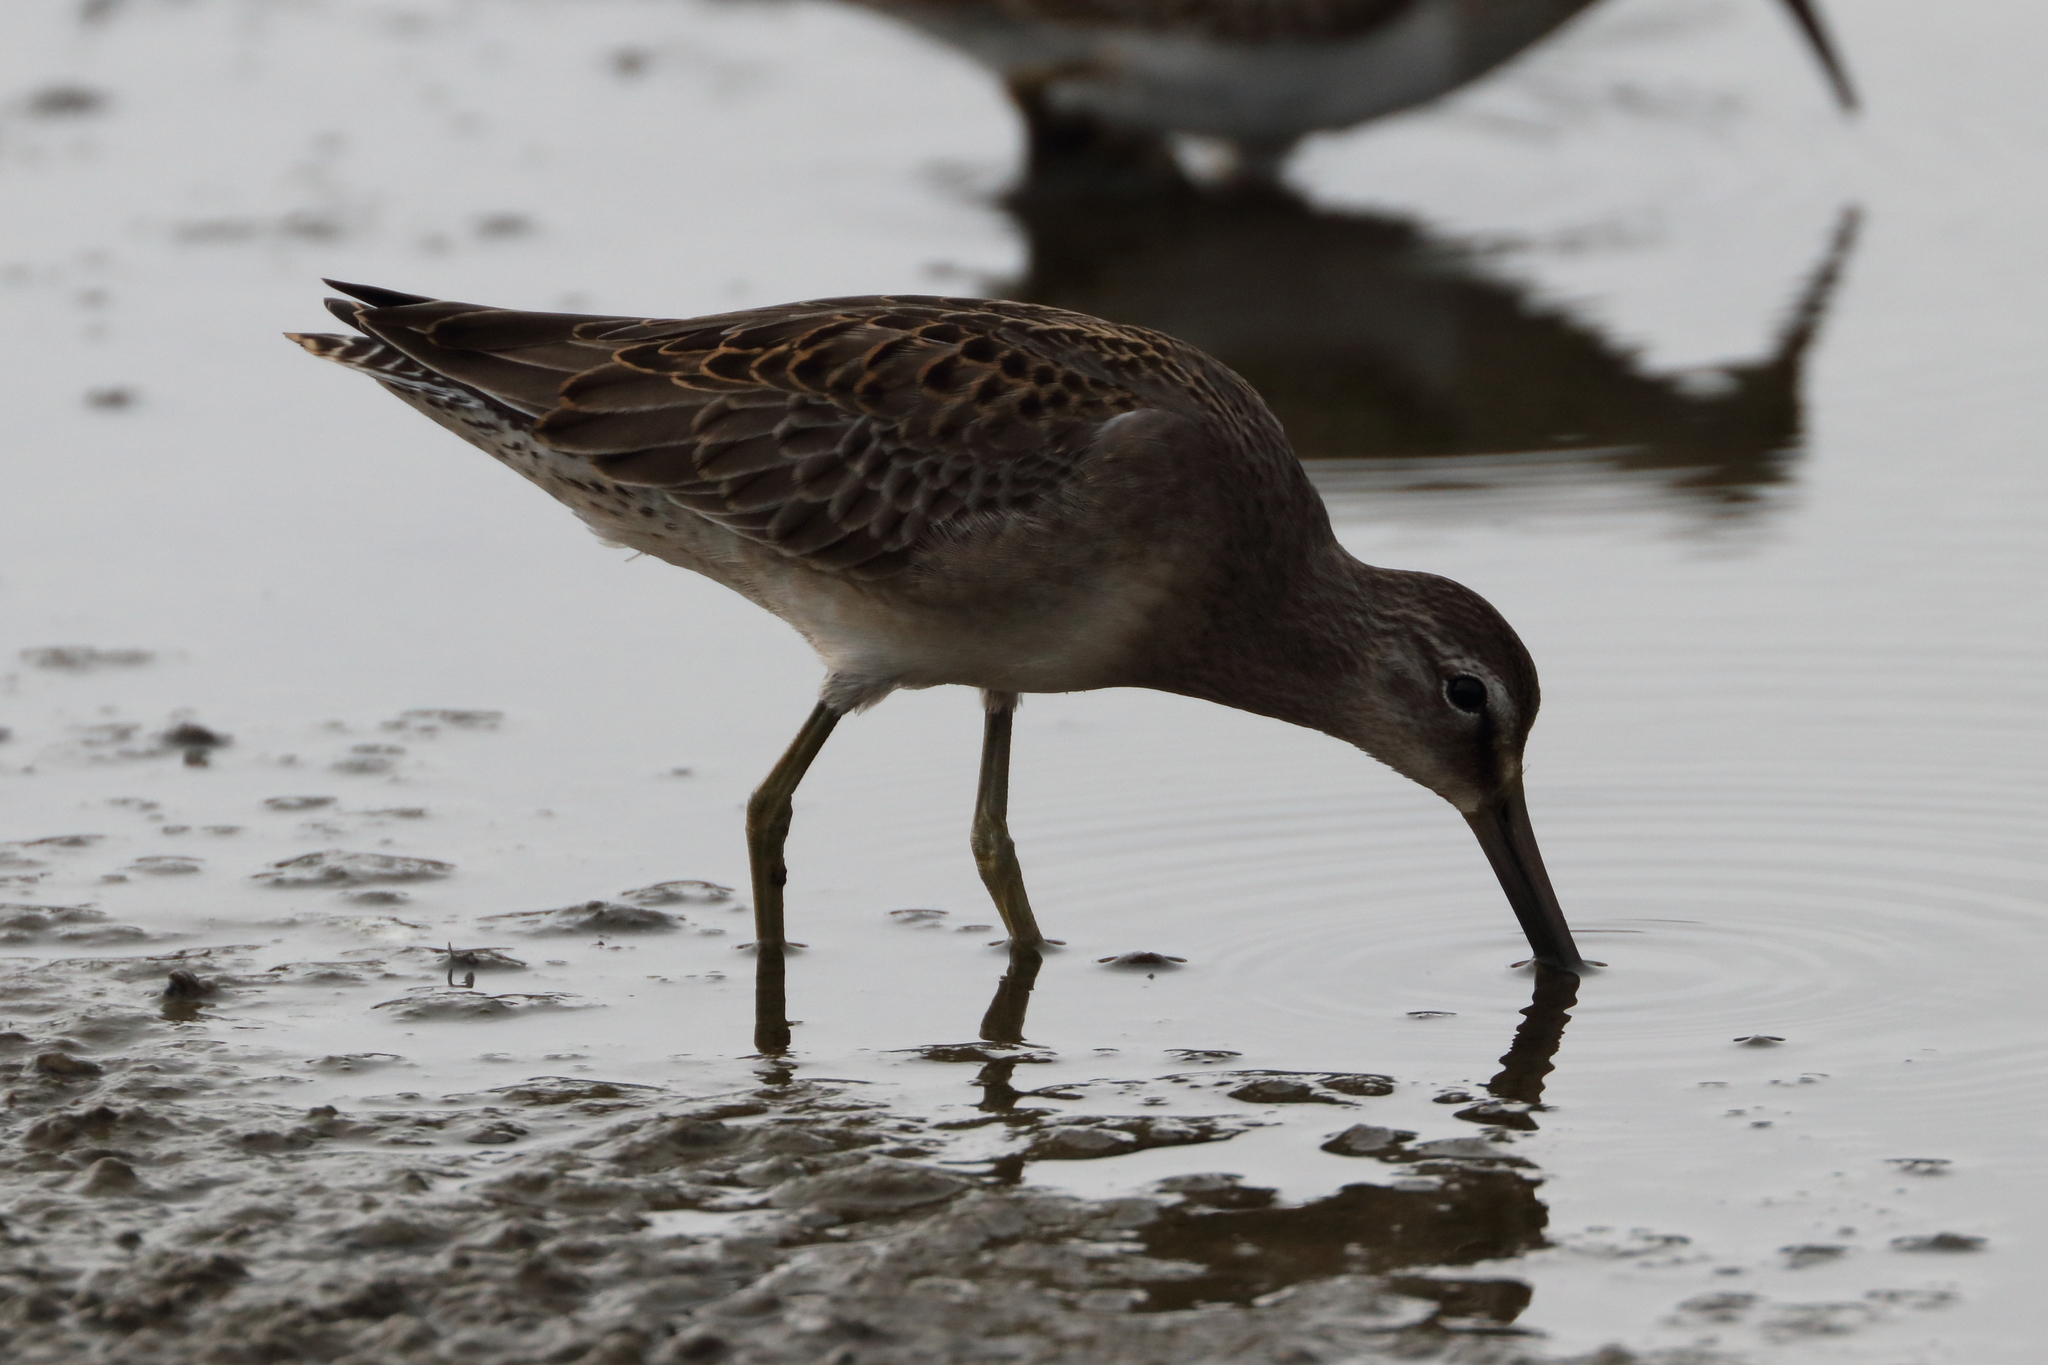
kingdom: Animalia
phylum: Chordata
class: Aves
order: Charadriiformes
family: Scolopacidae
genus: Limnodromus
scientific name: Limnodromus scolopaceus
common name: Long-billed dowitcher
